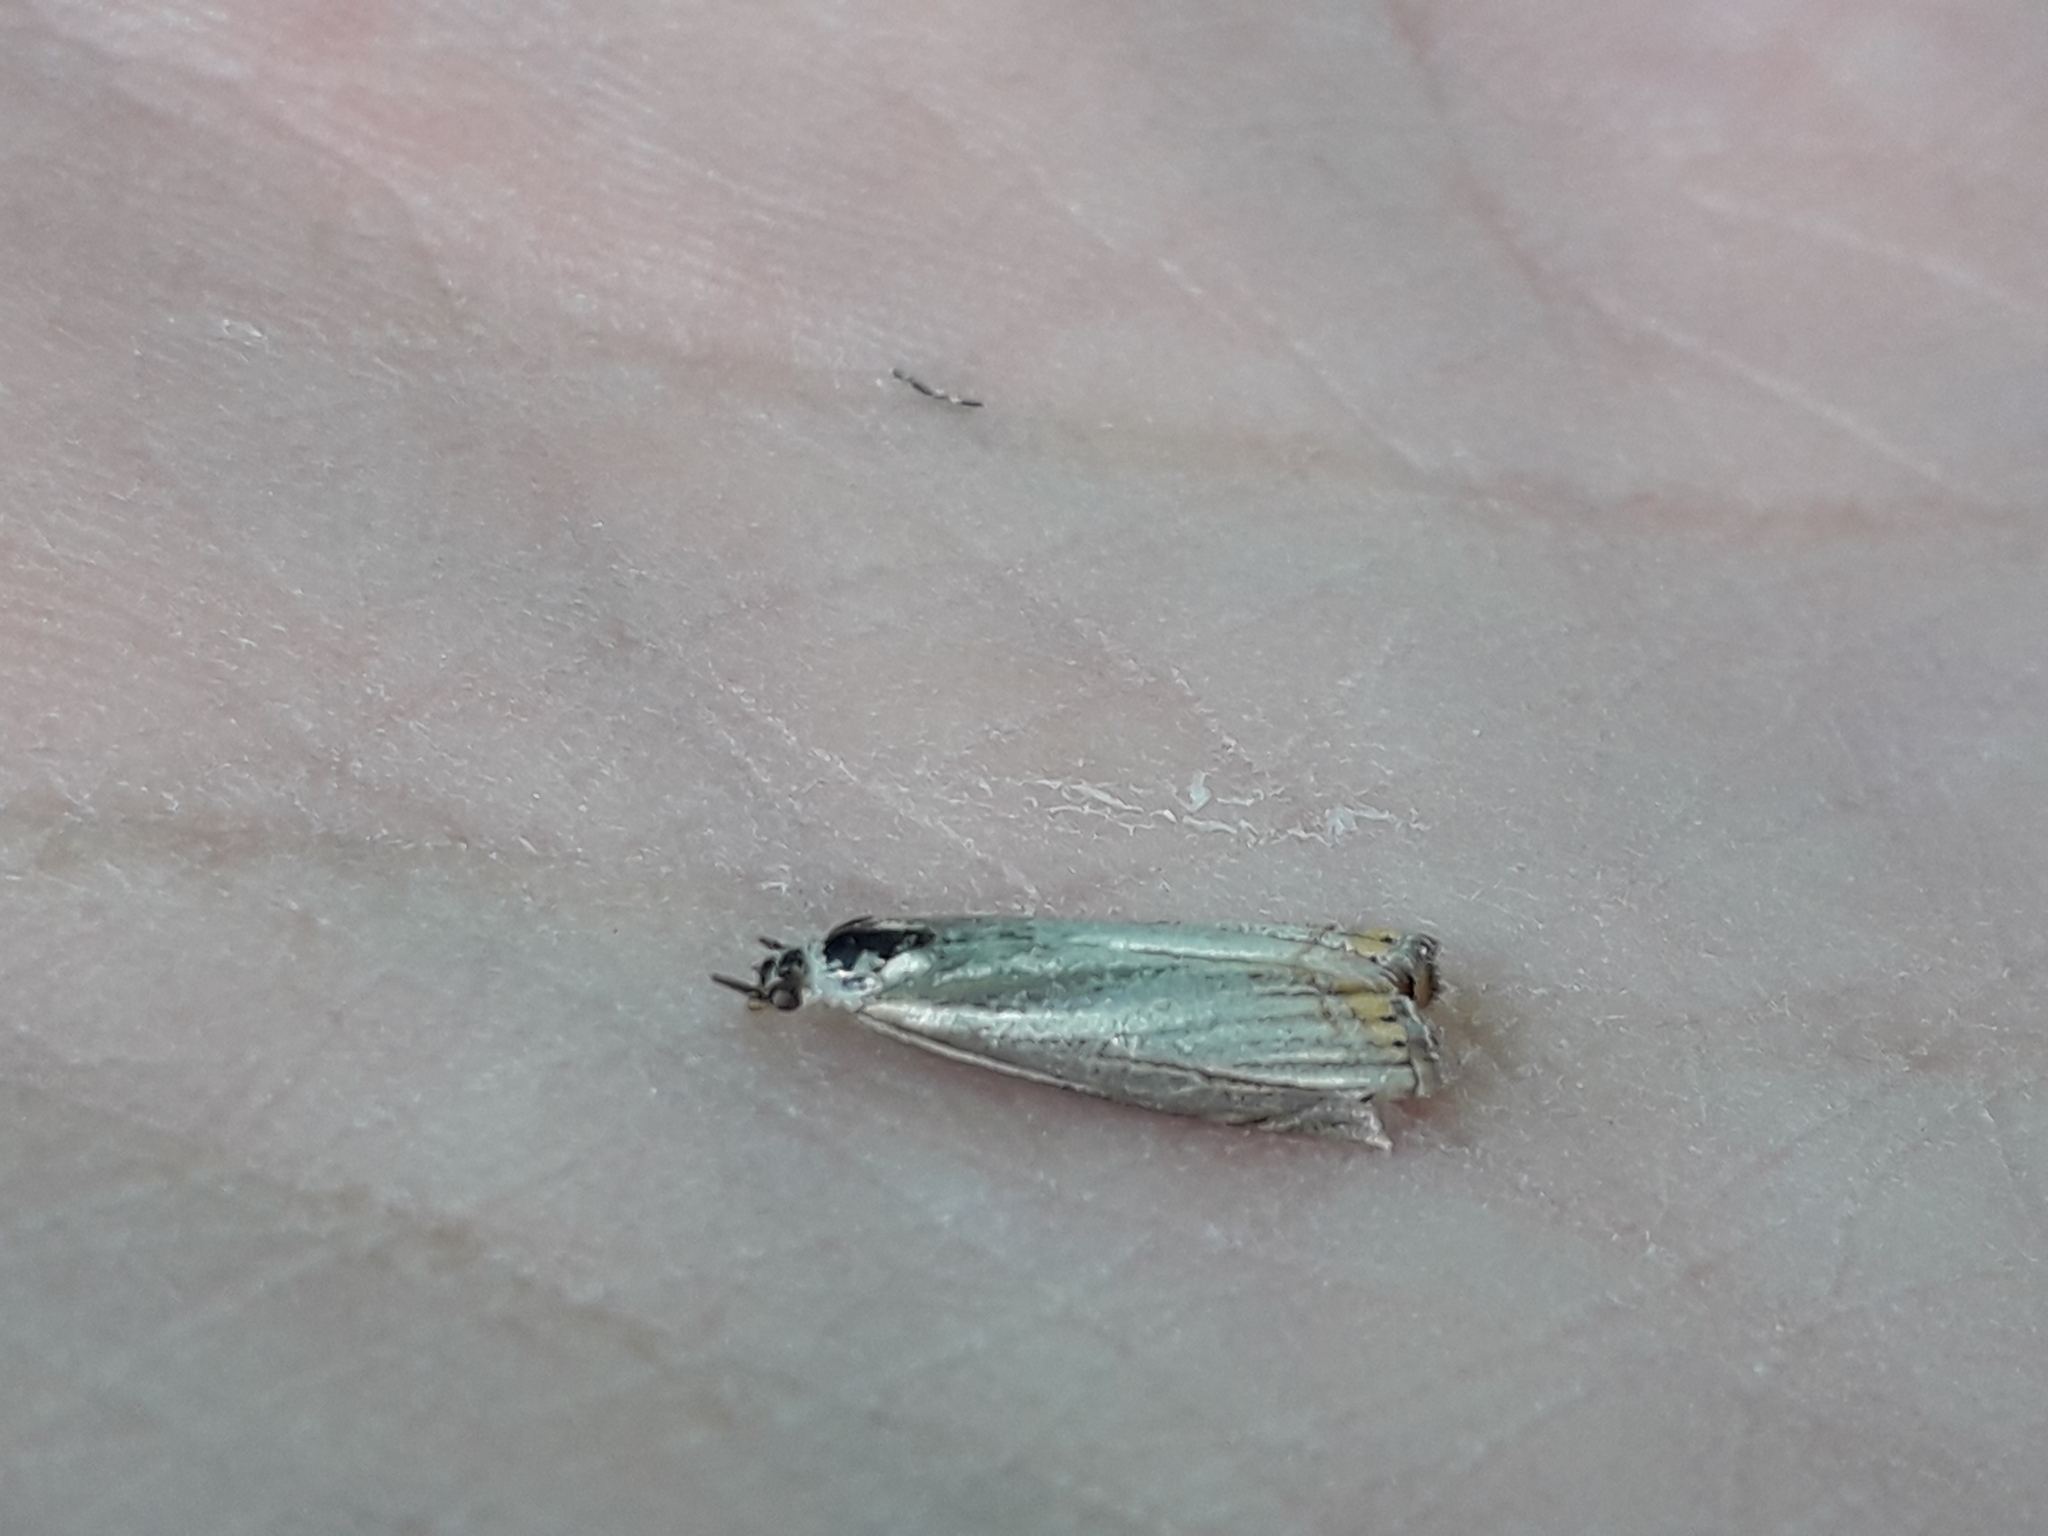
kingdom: Animalia
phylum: Arthropoda
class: Insecta
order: Lepidoptera
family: Crambidae
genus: Chrysoteuchia
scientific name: Chrysoteuchia culmella
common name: Garden grass-veneer
